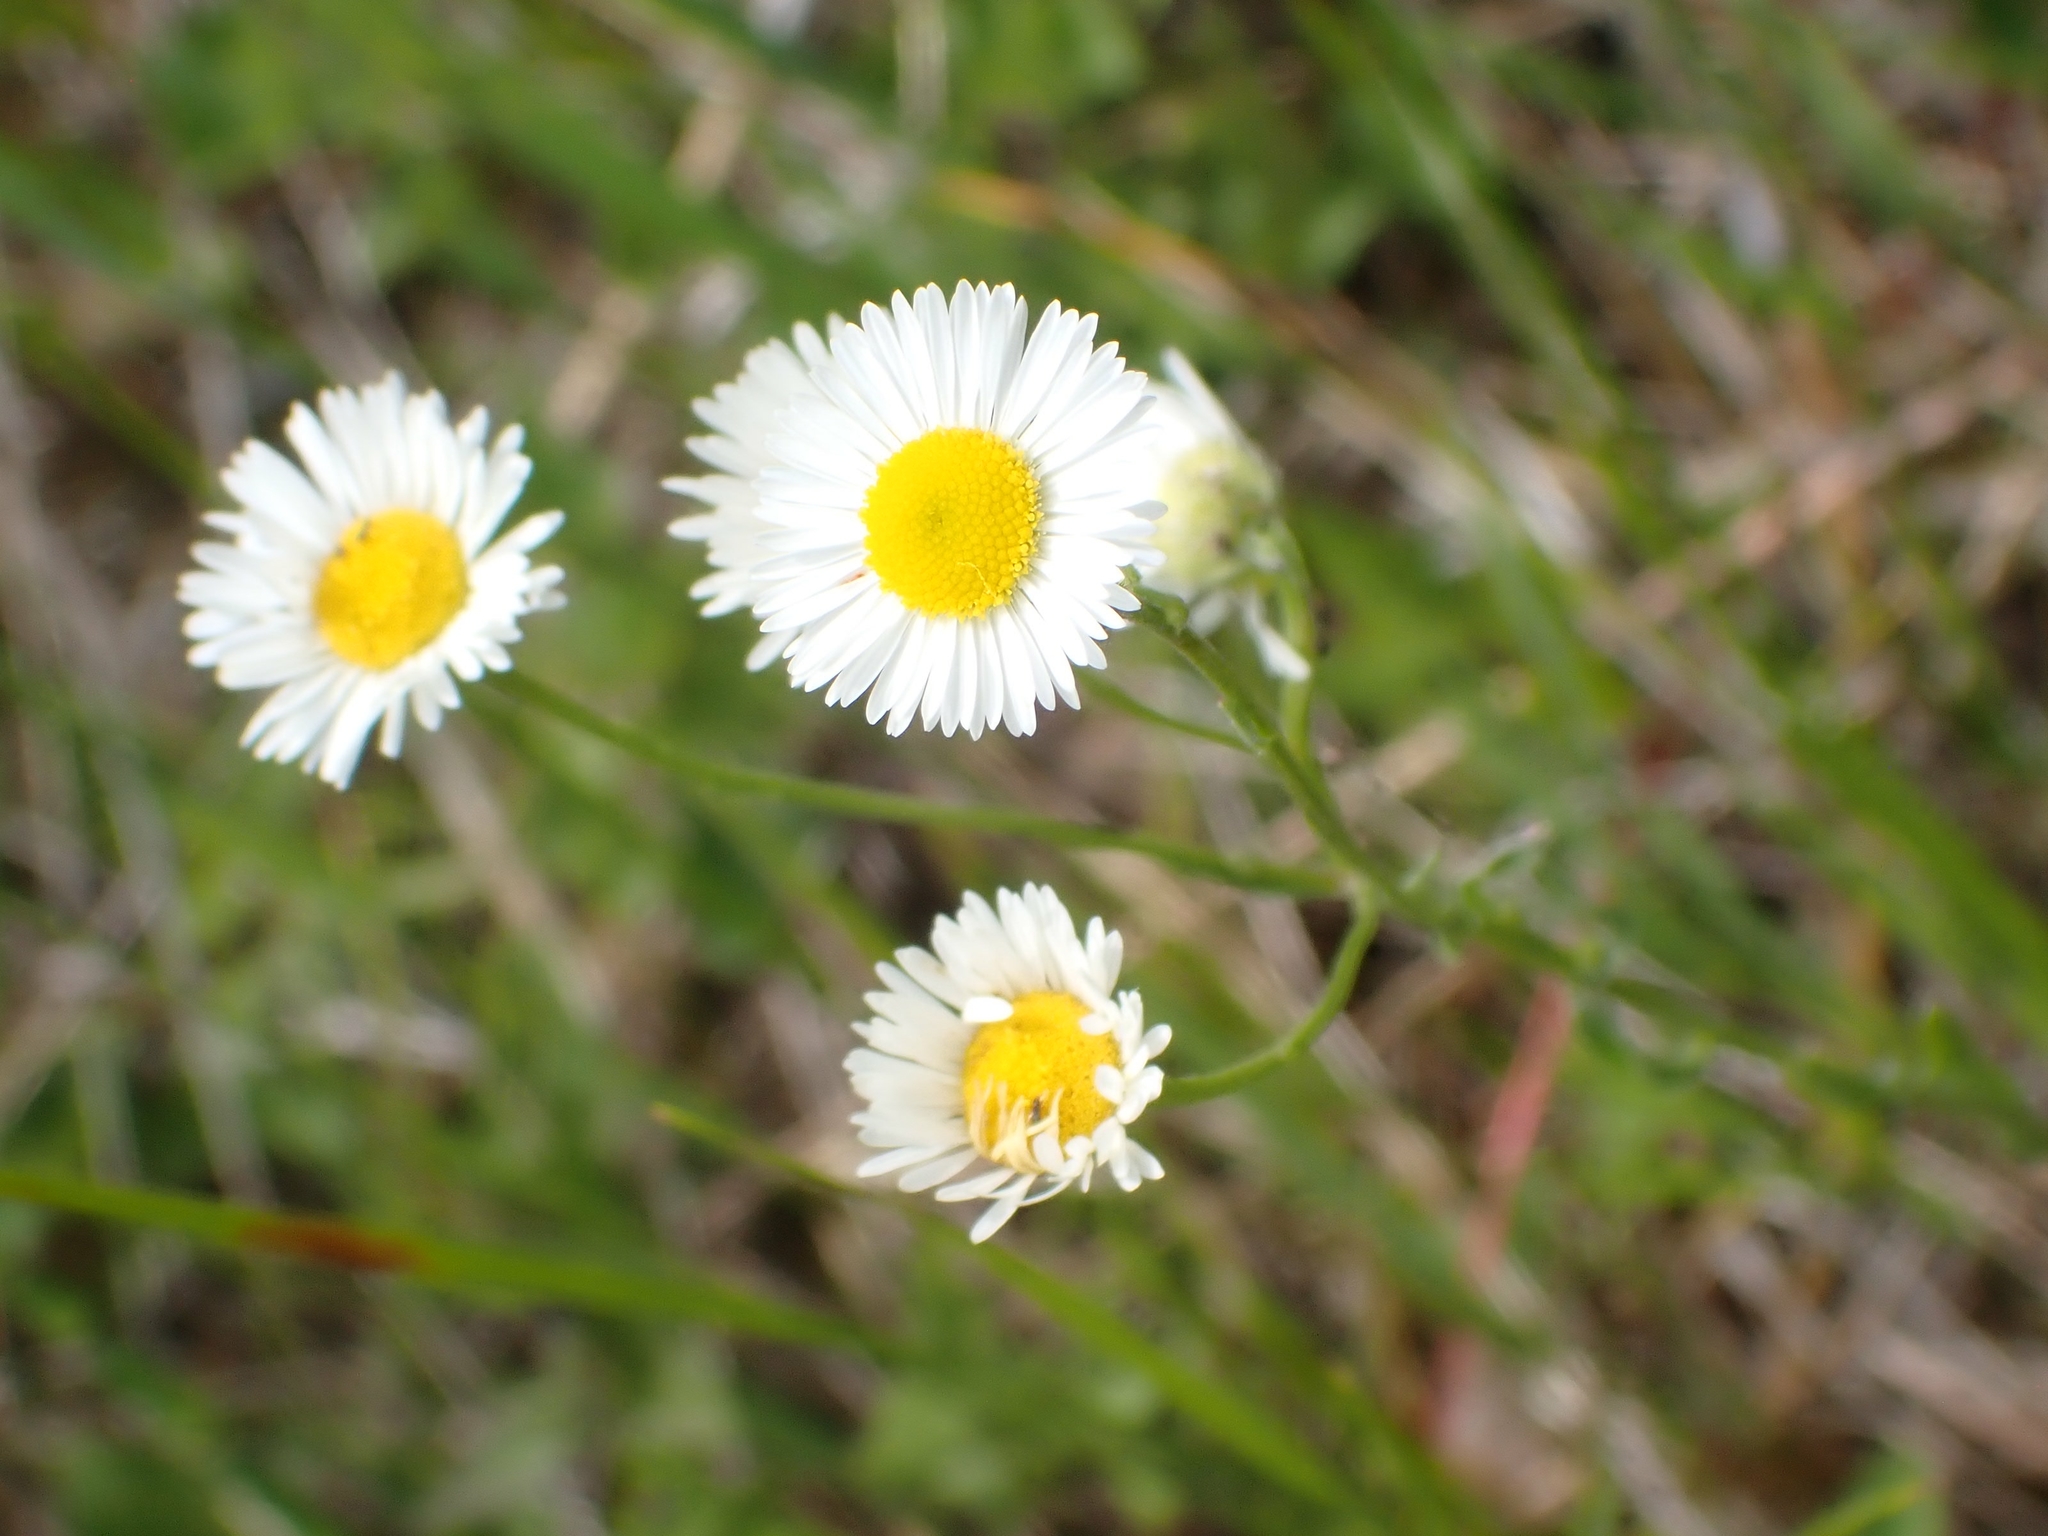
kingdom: Plantae
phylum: Tracheophyta
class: Magnoliopsida
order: Asterales
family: Asteraceae
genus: Erigeron
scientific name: Erigeron strigosus
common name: Common eastern fleabane
